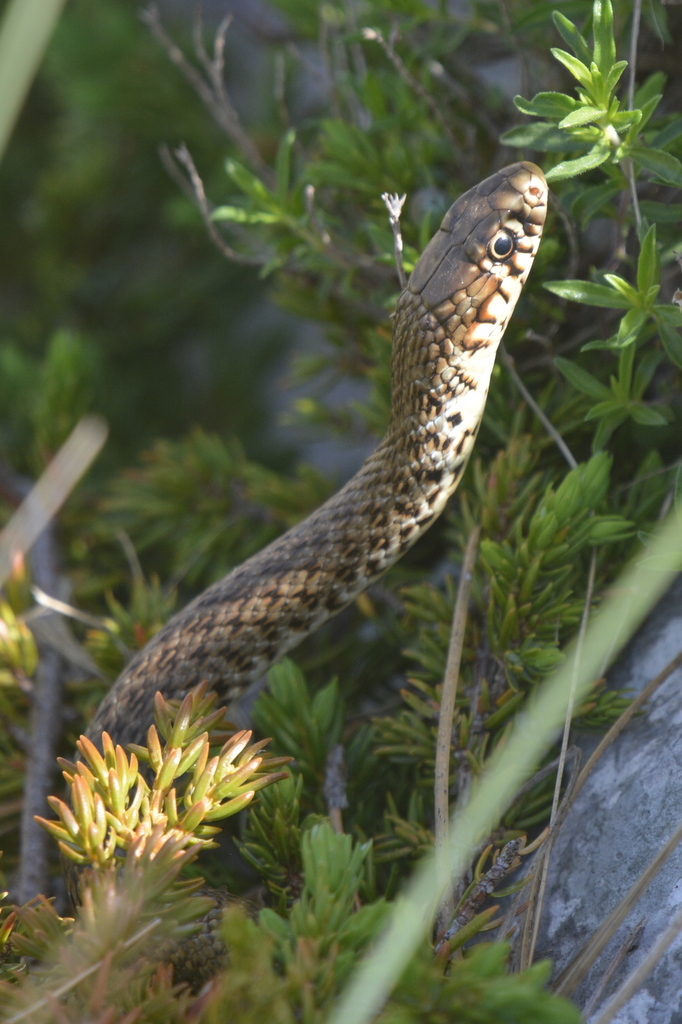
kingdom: Animalia
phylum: Chordata
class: Squamata
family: Colubridae
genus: Hierophis
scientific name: Hierophis gemonensis
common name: Balkan whip snake
